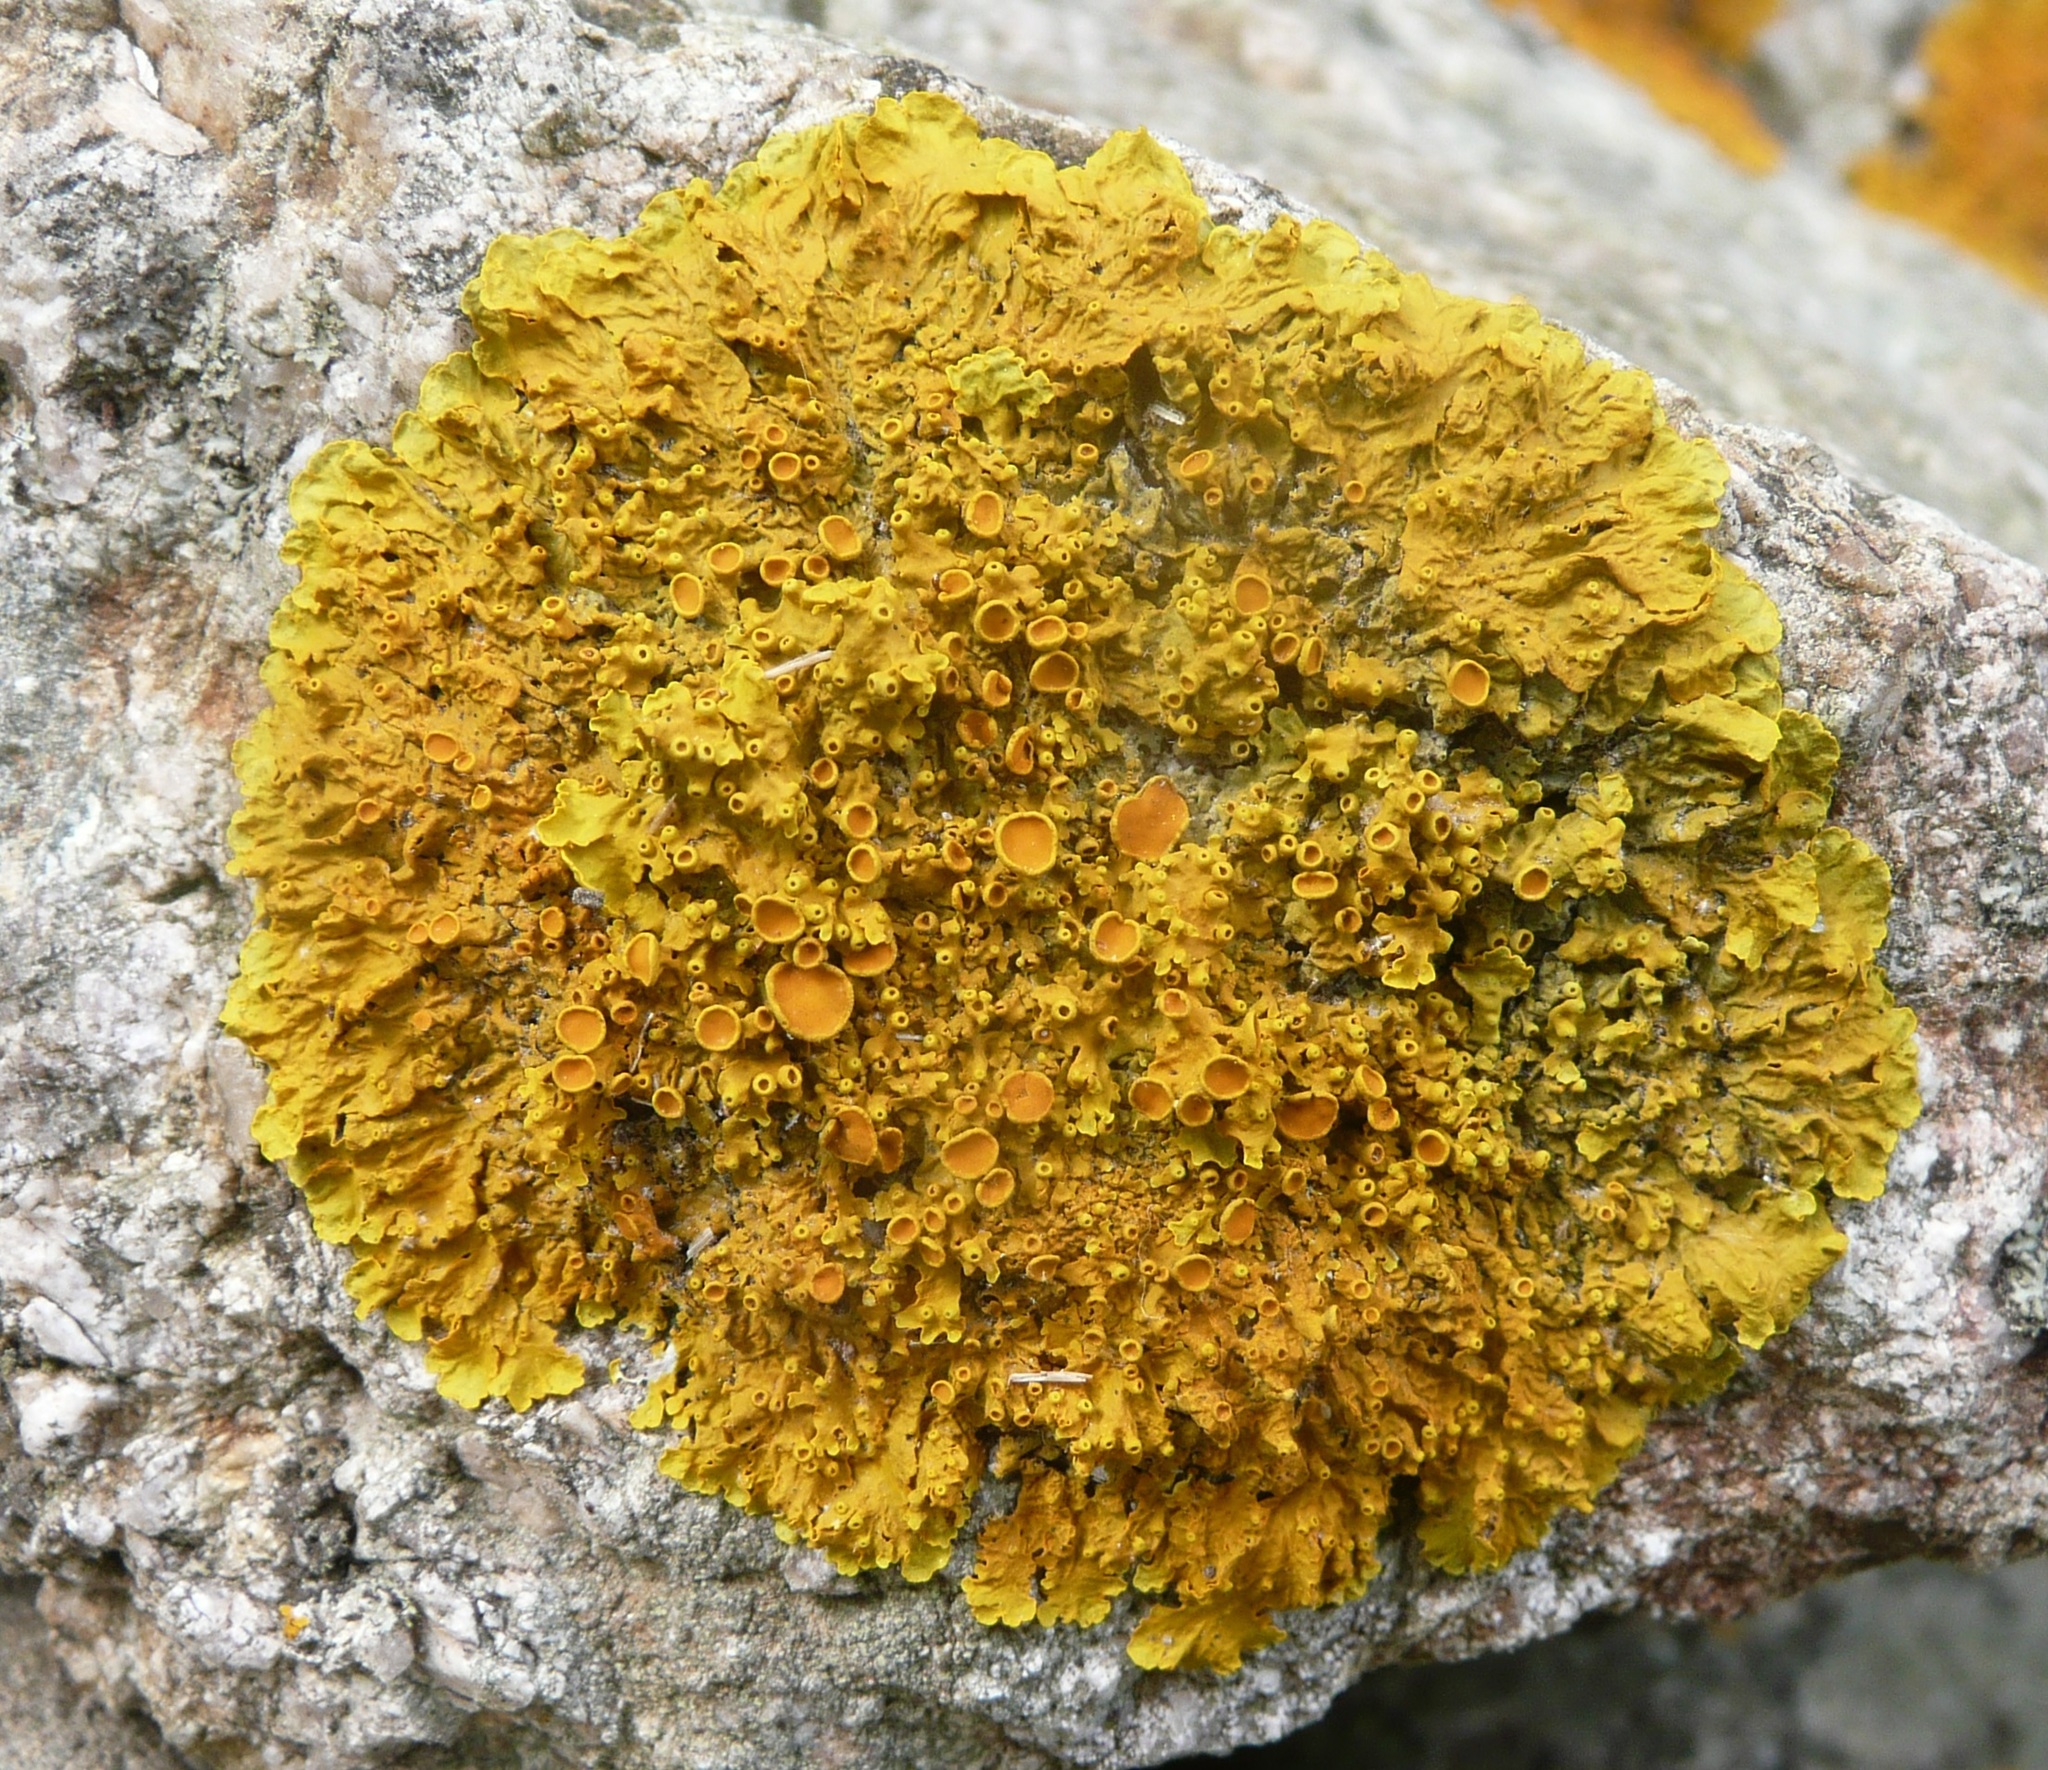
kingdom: Fungi
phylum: Ascomycota
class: Lecanoromycetes
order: Teloschistales
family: Teloschistaceae
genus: Xanthoria
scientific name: Xanthoria parietina
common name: Common orange lichen
